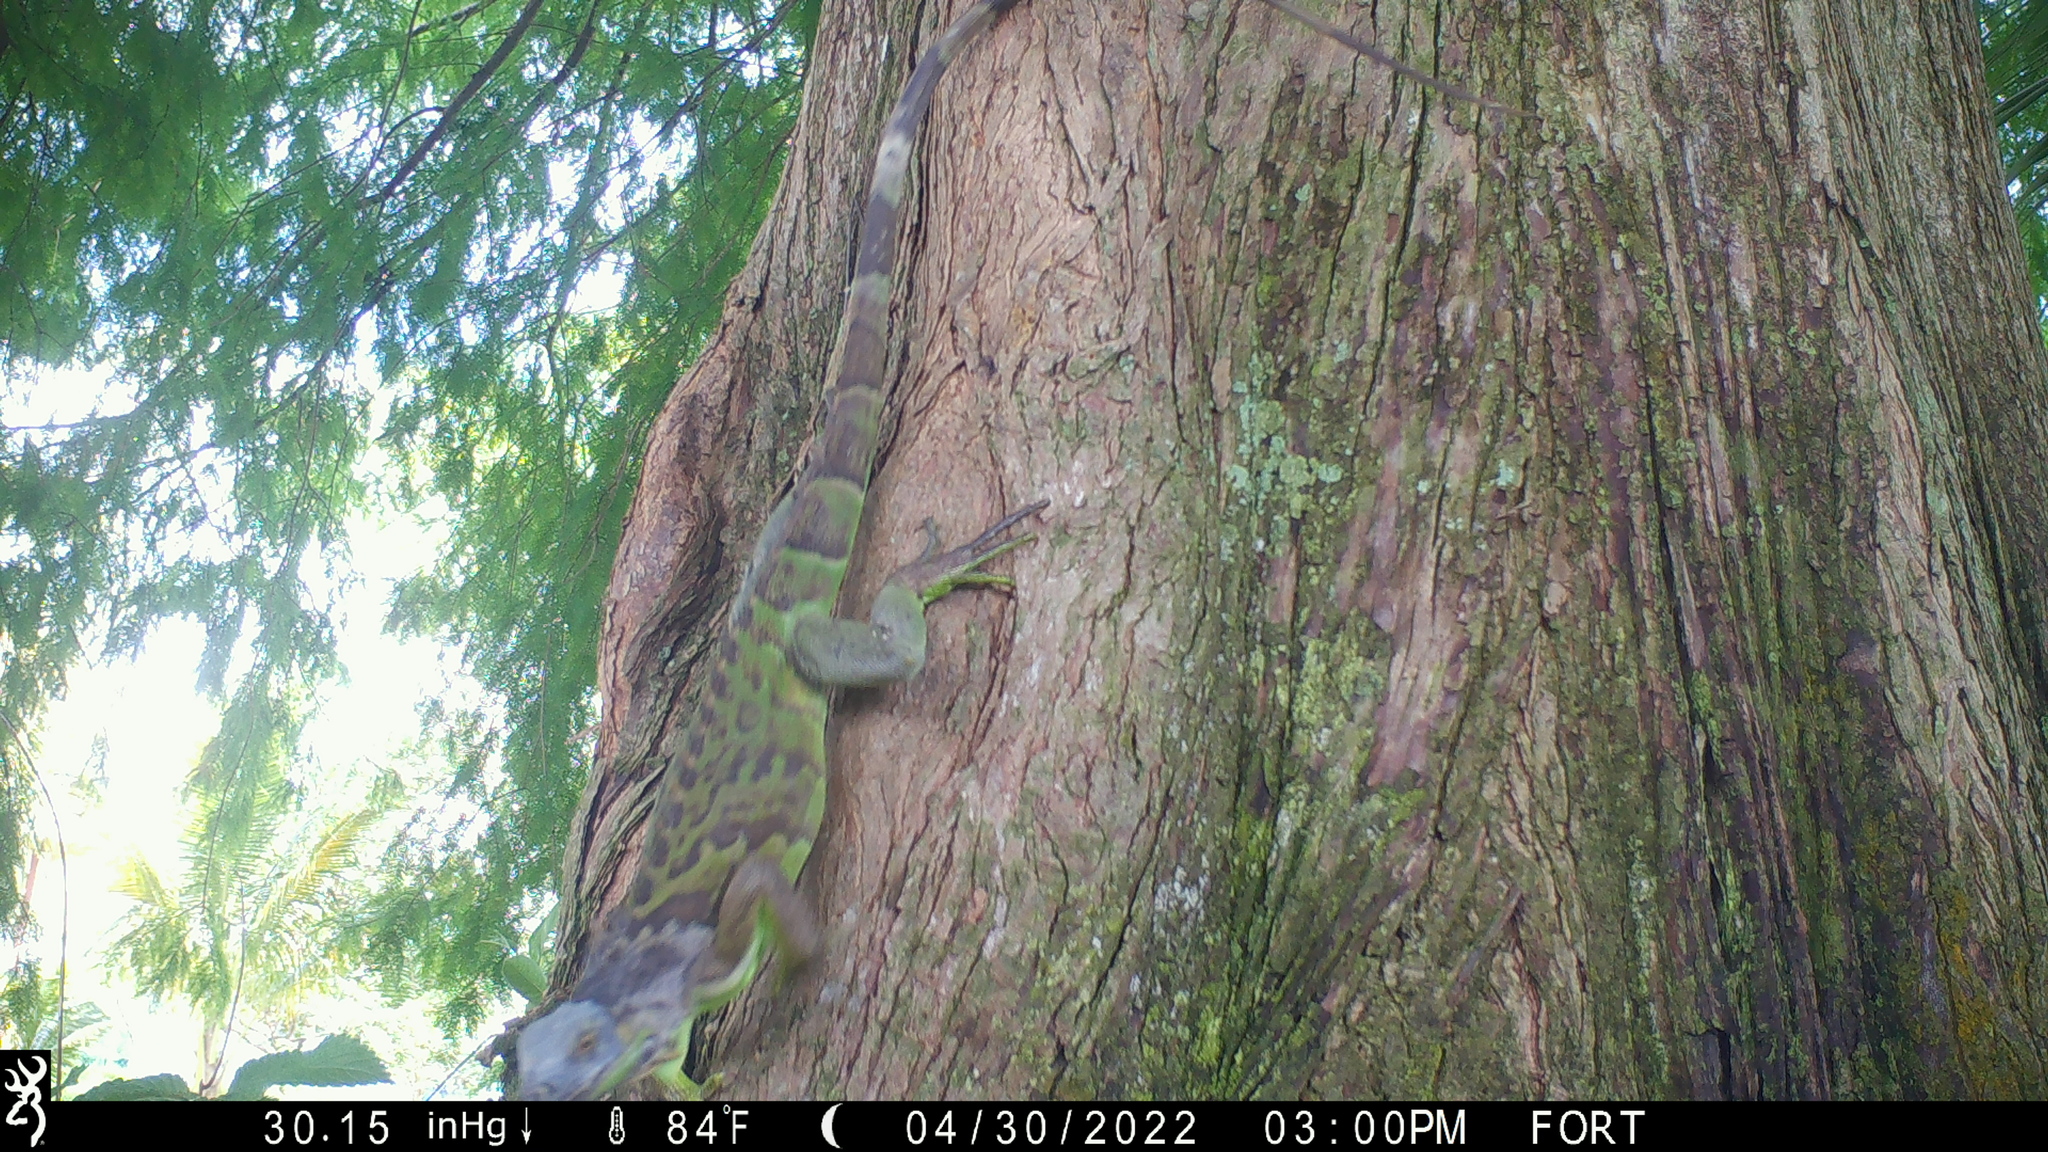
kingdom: Animalia
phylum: Chordata
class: Squamata
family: Iguanidae
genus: Iguana
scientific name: Iguana iguana
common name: Green iguana
